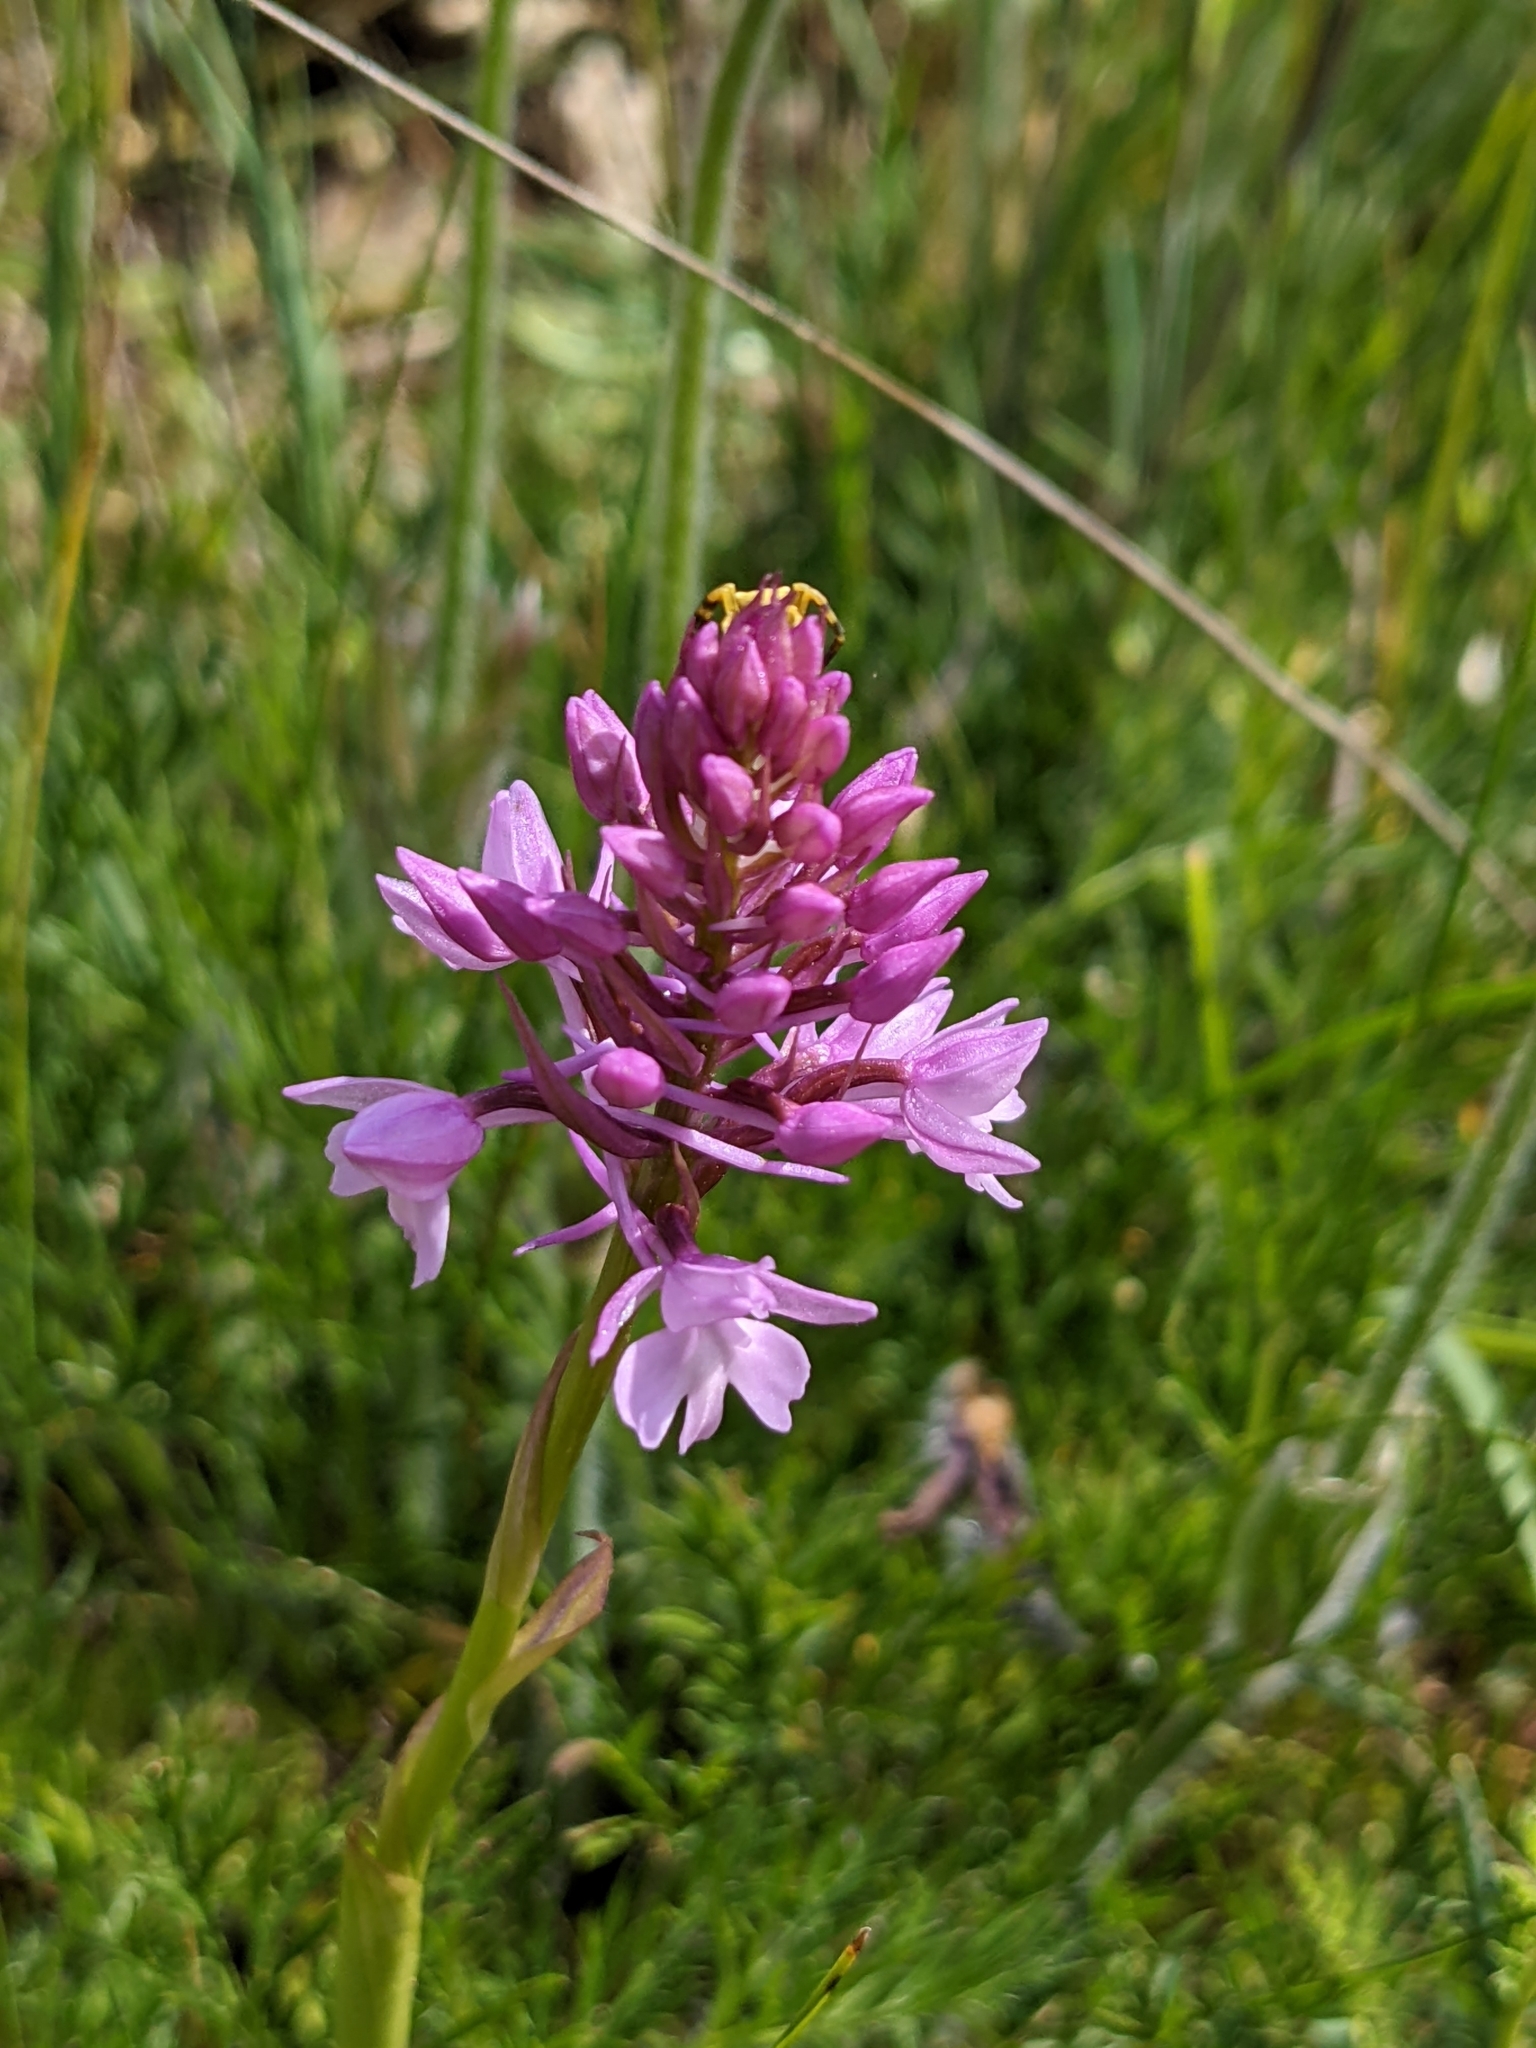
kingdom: Plantae
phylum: Tracheophyta
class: Liliopsida
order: Asparagales
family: Orchidaceae
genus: Anacamptis
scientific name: Anacamptis pyramidalis
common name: Pyramidal orchid
